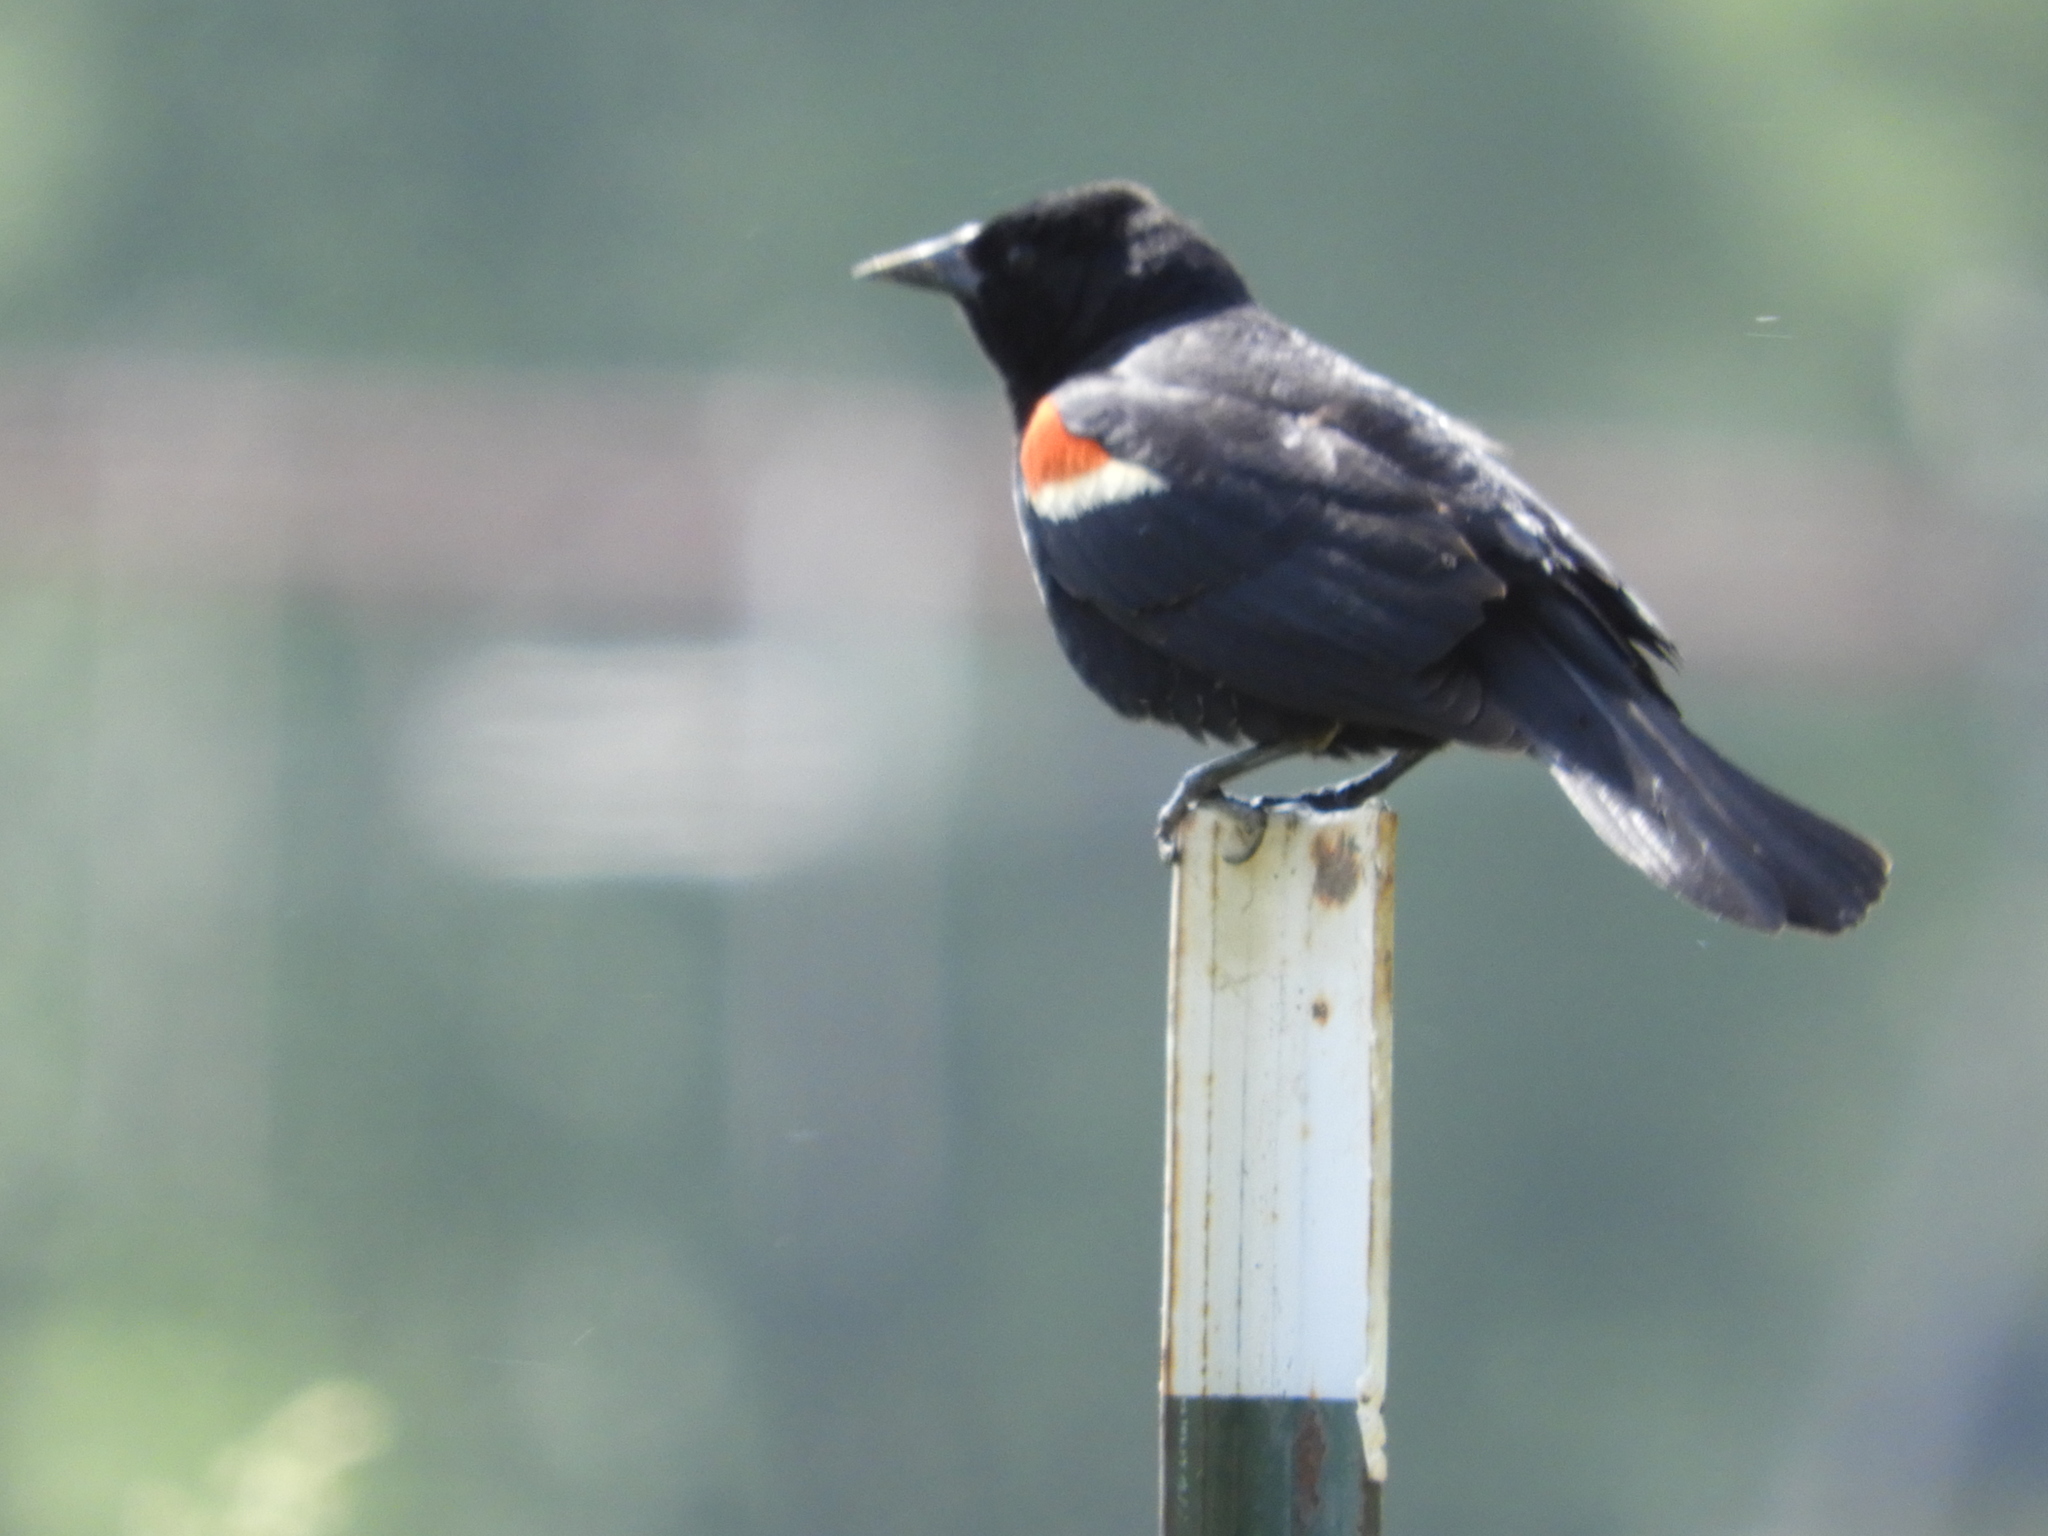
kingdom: Animalia
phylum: Chordata
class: Aves
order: Passeriformes
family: Icteridae
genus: Agelaius
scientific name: Agelaius phoeniceus
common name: Red-winged blackbird
